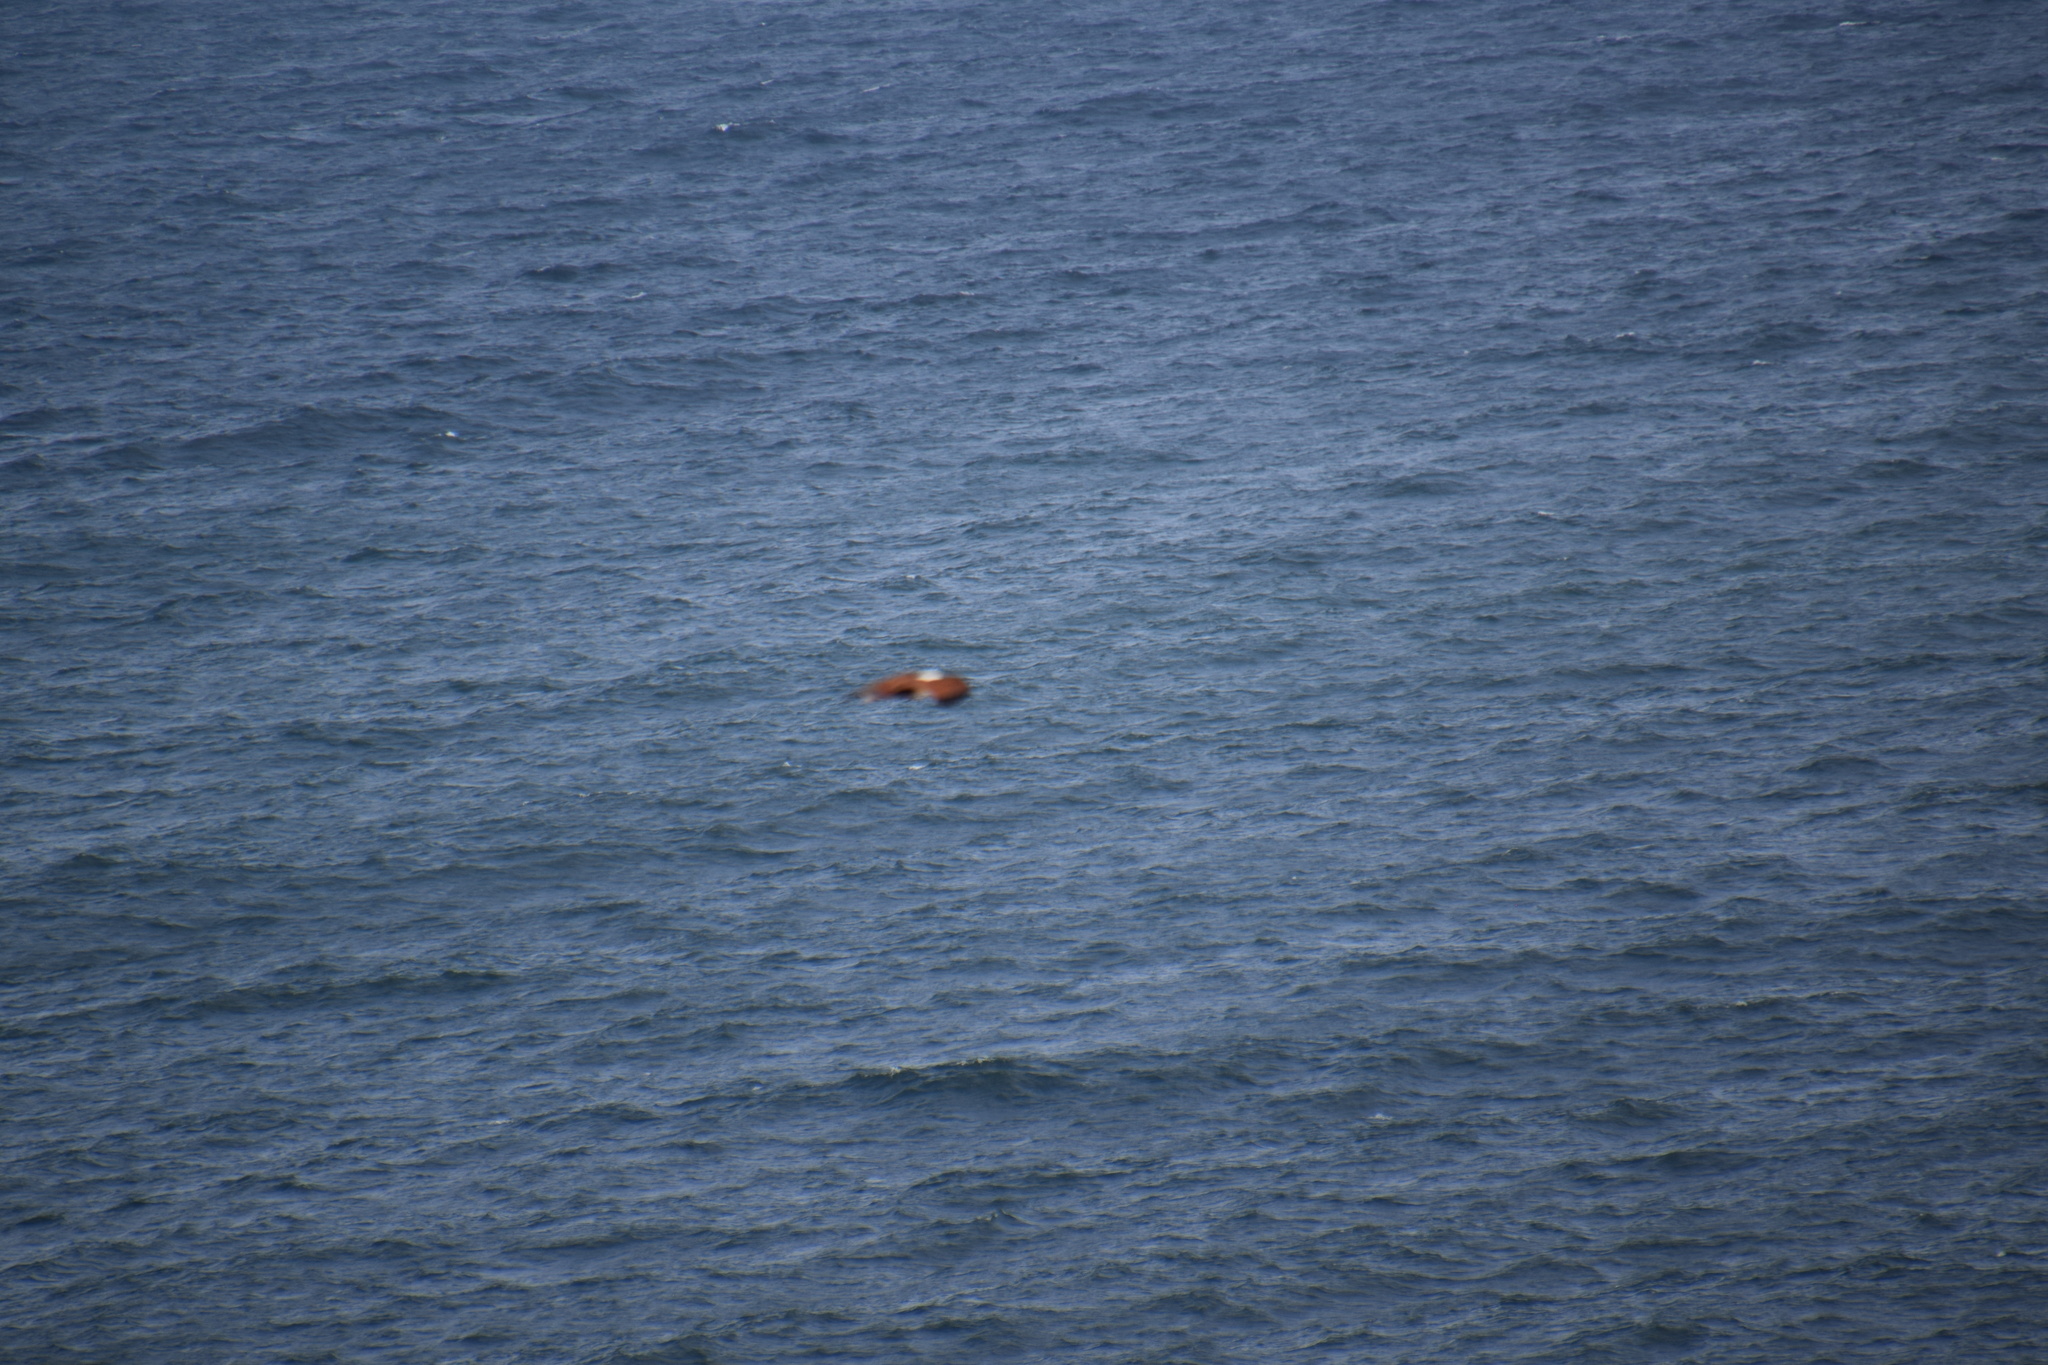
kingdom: Animalia
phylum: Chordata
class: Aves
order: Accipitriformes
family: Accipitridae
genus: Haliastur
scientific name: Haliastur indus
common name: Brahminy kite
